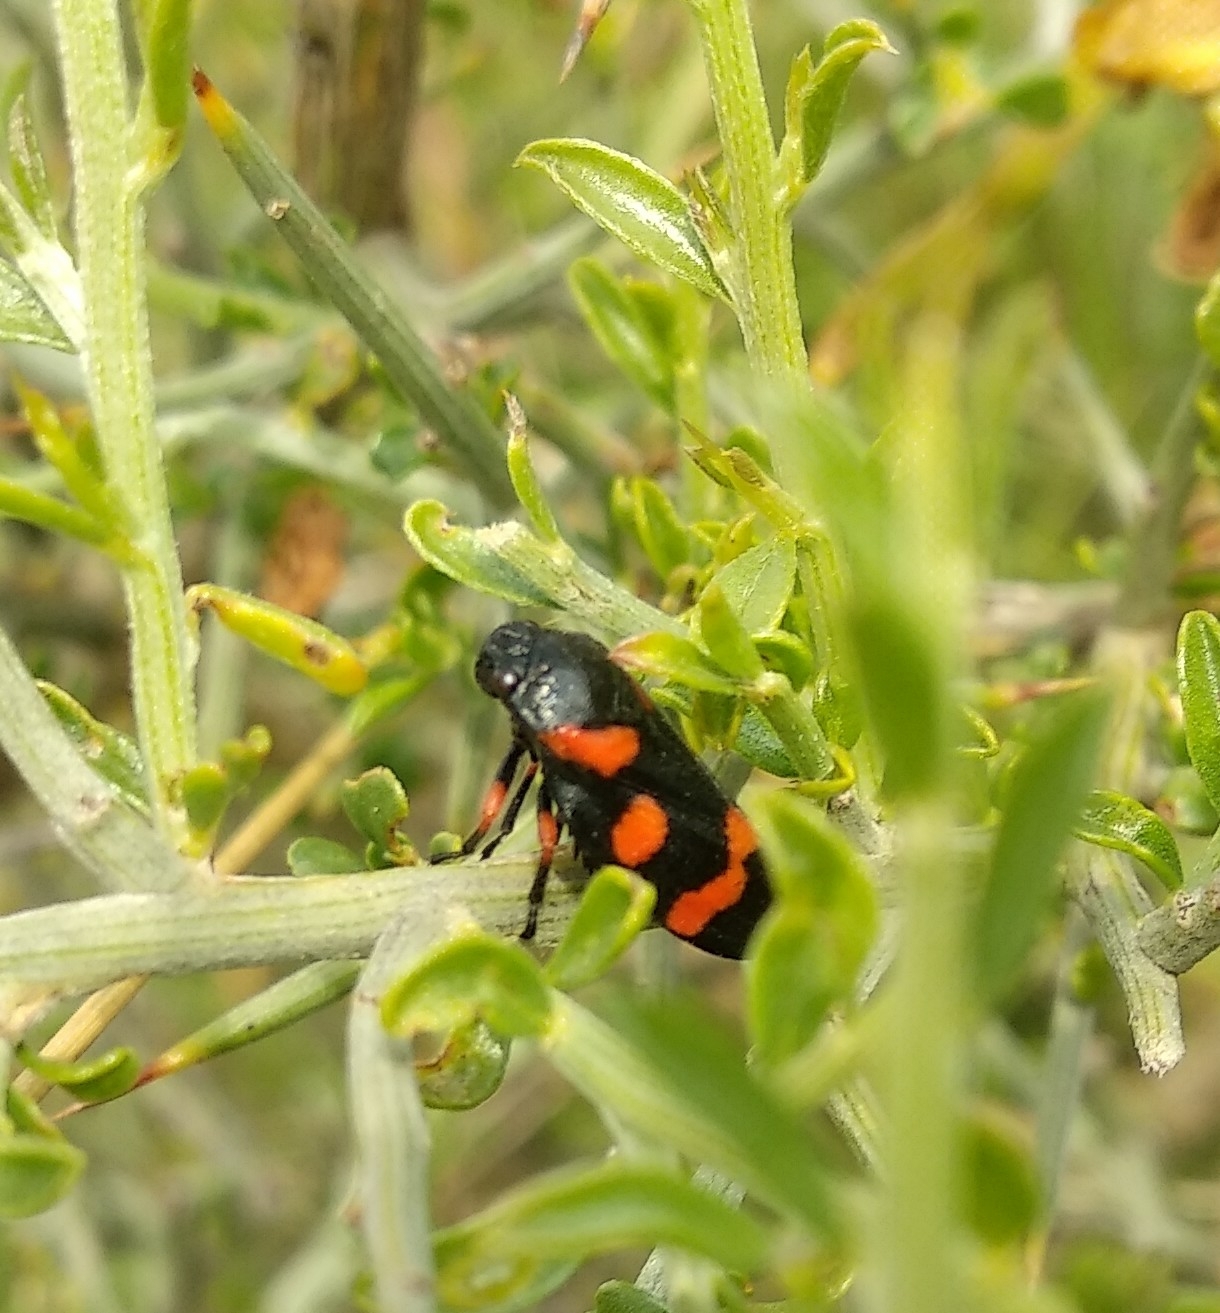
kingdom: Animalia
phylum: Arthropoda
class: Insecta
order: Hemiptera
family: Cercopidae
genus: Cercopis
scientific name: Cercopis intermedia
